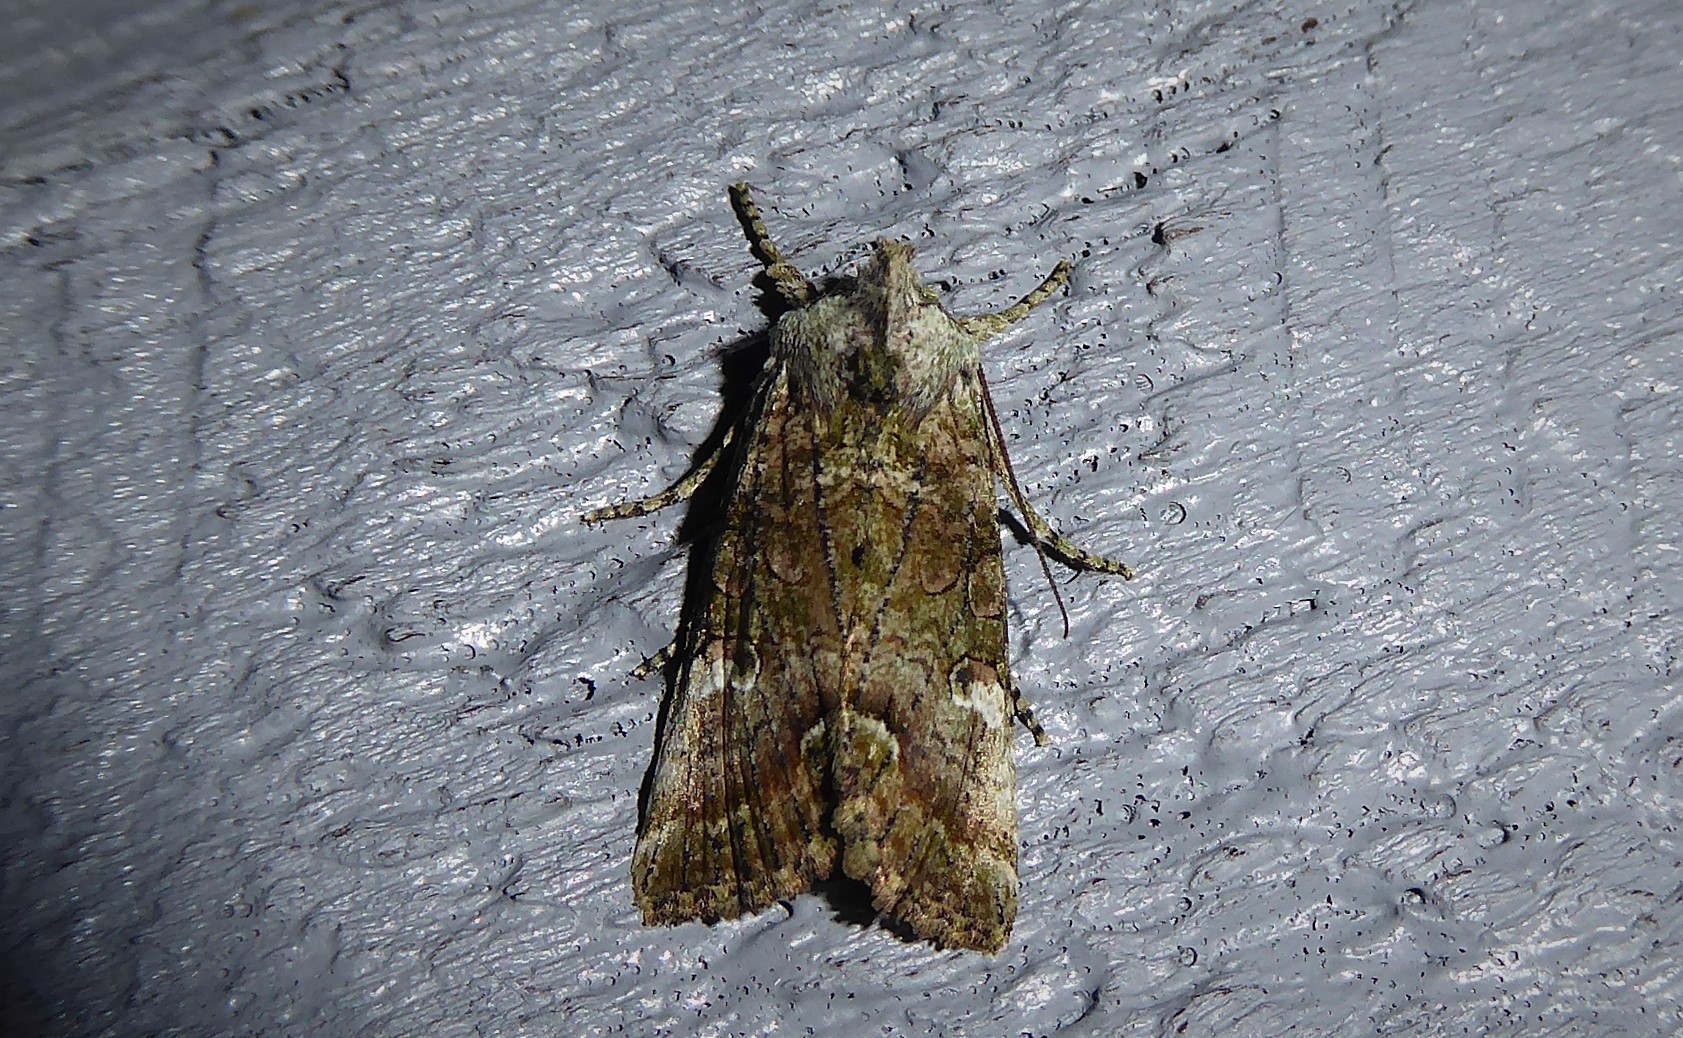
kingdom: Animalia
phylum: Arthropoda
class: Insecta
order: Lepidoptera
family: Noctuidae
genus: Meterana
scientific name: Meterana levis
